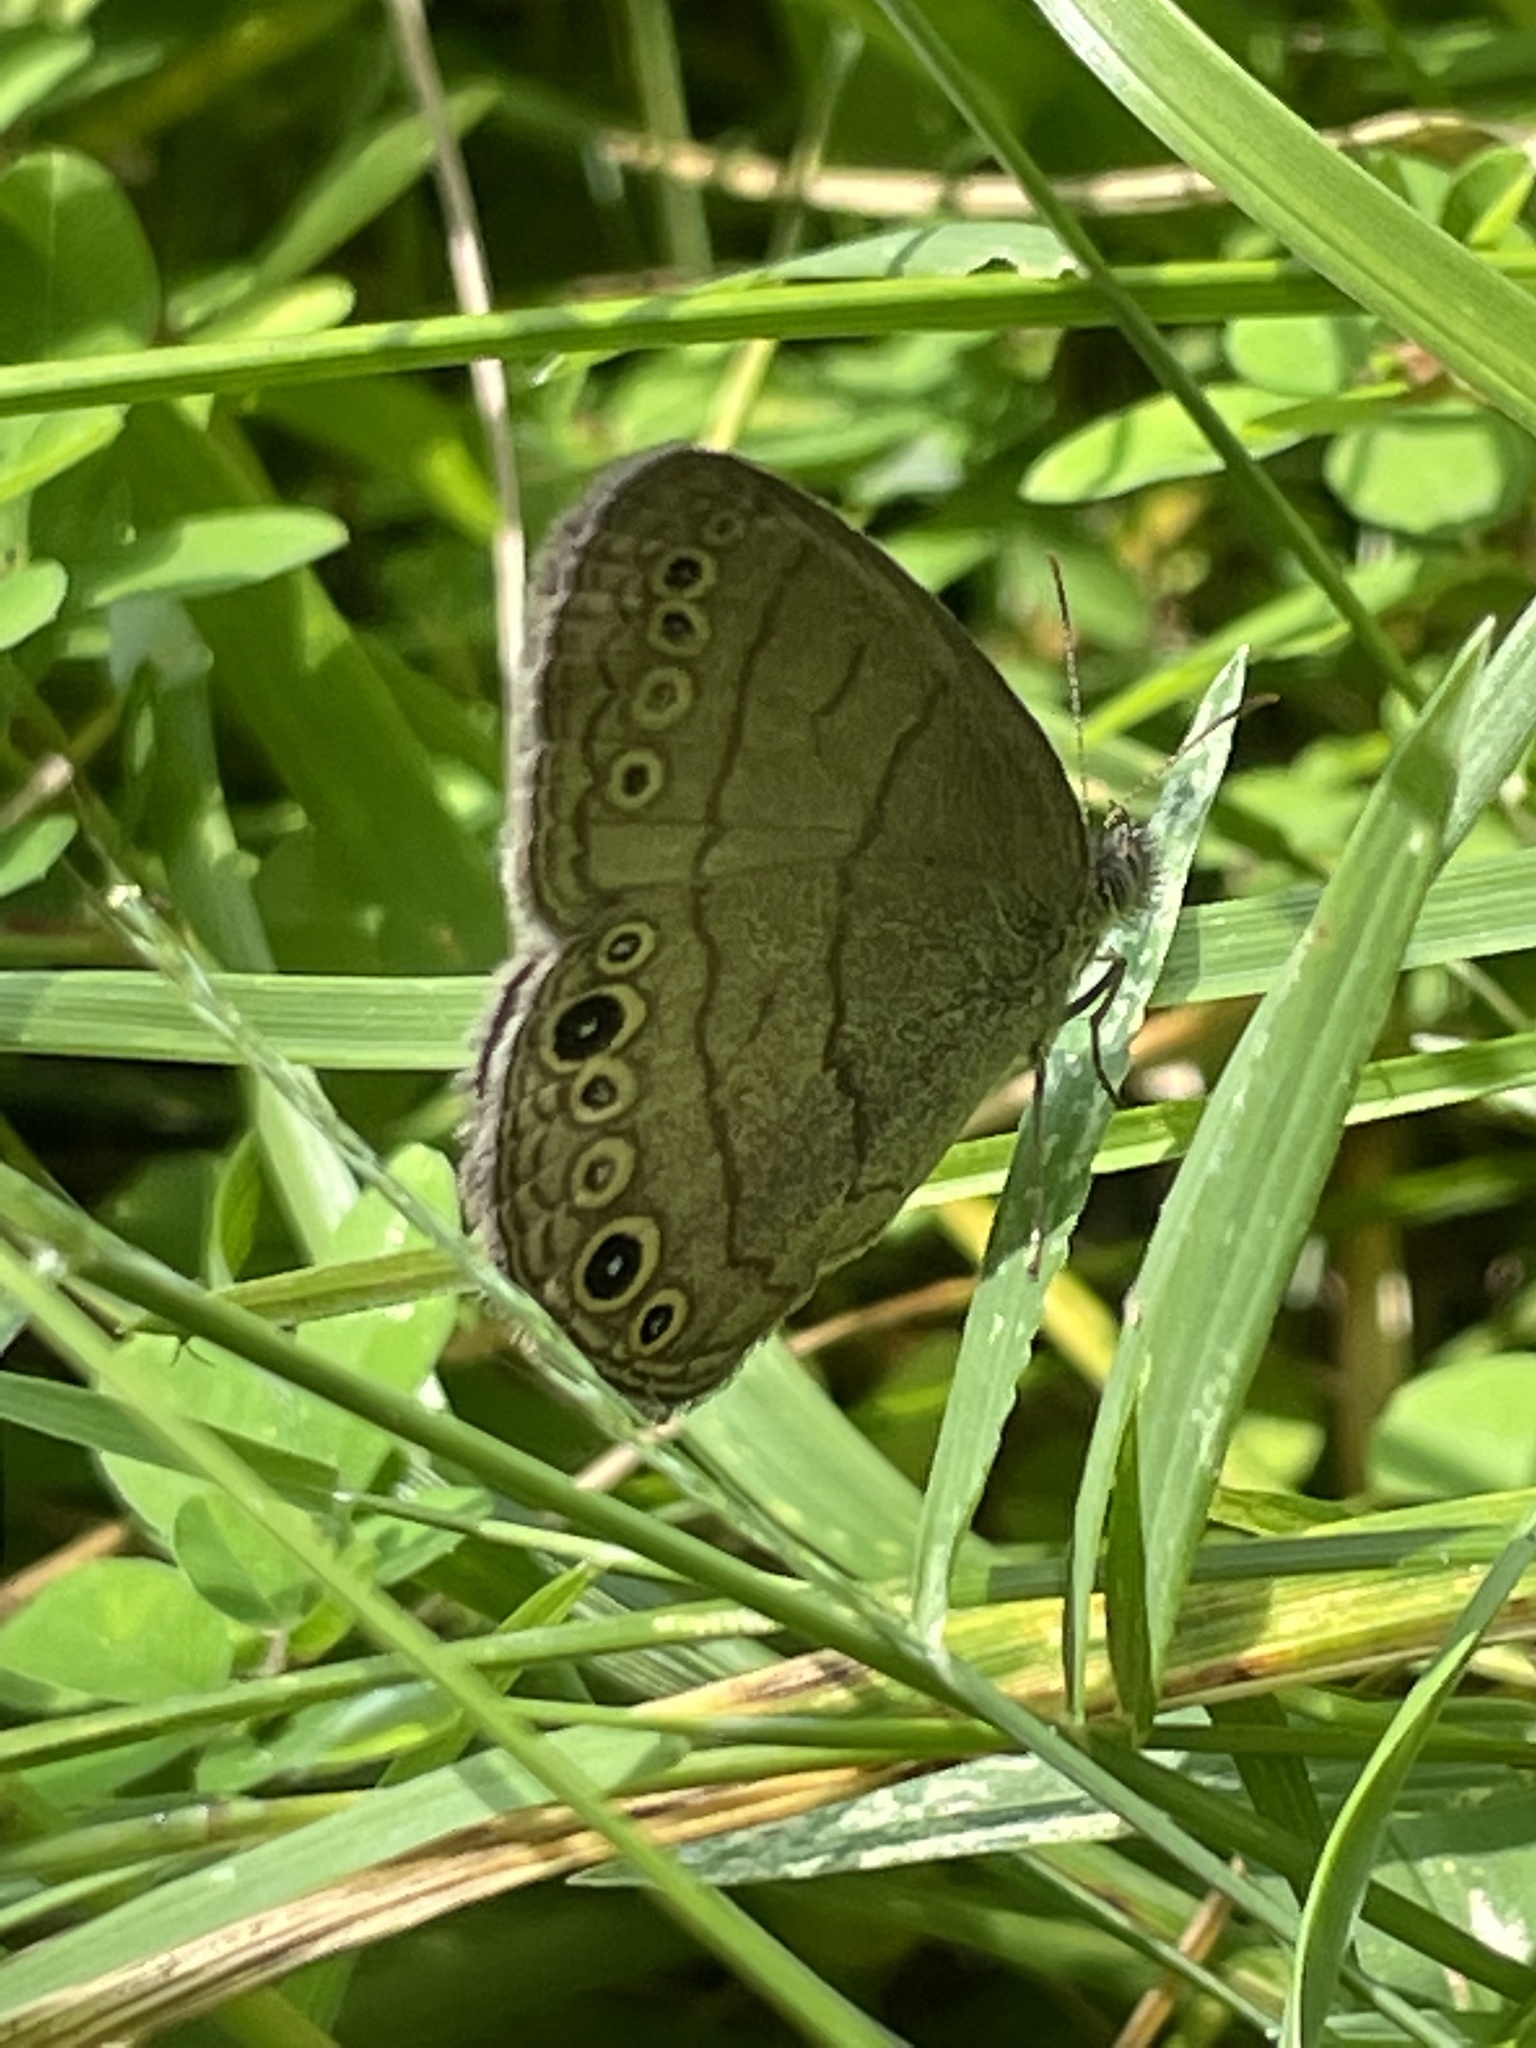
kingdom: Animalia
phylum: Arthropoda
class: Insecta
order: Lepidoptera
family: Nymphalidae
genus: Hermeuptychia
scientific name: Hermeuptychia hermes
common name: Hermes satyr
